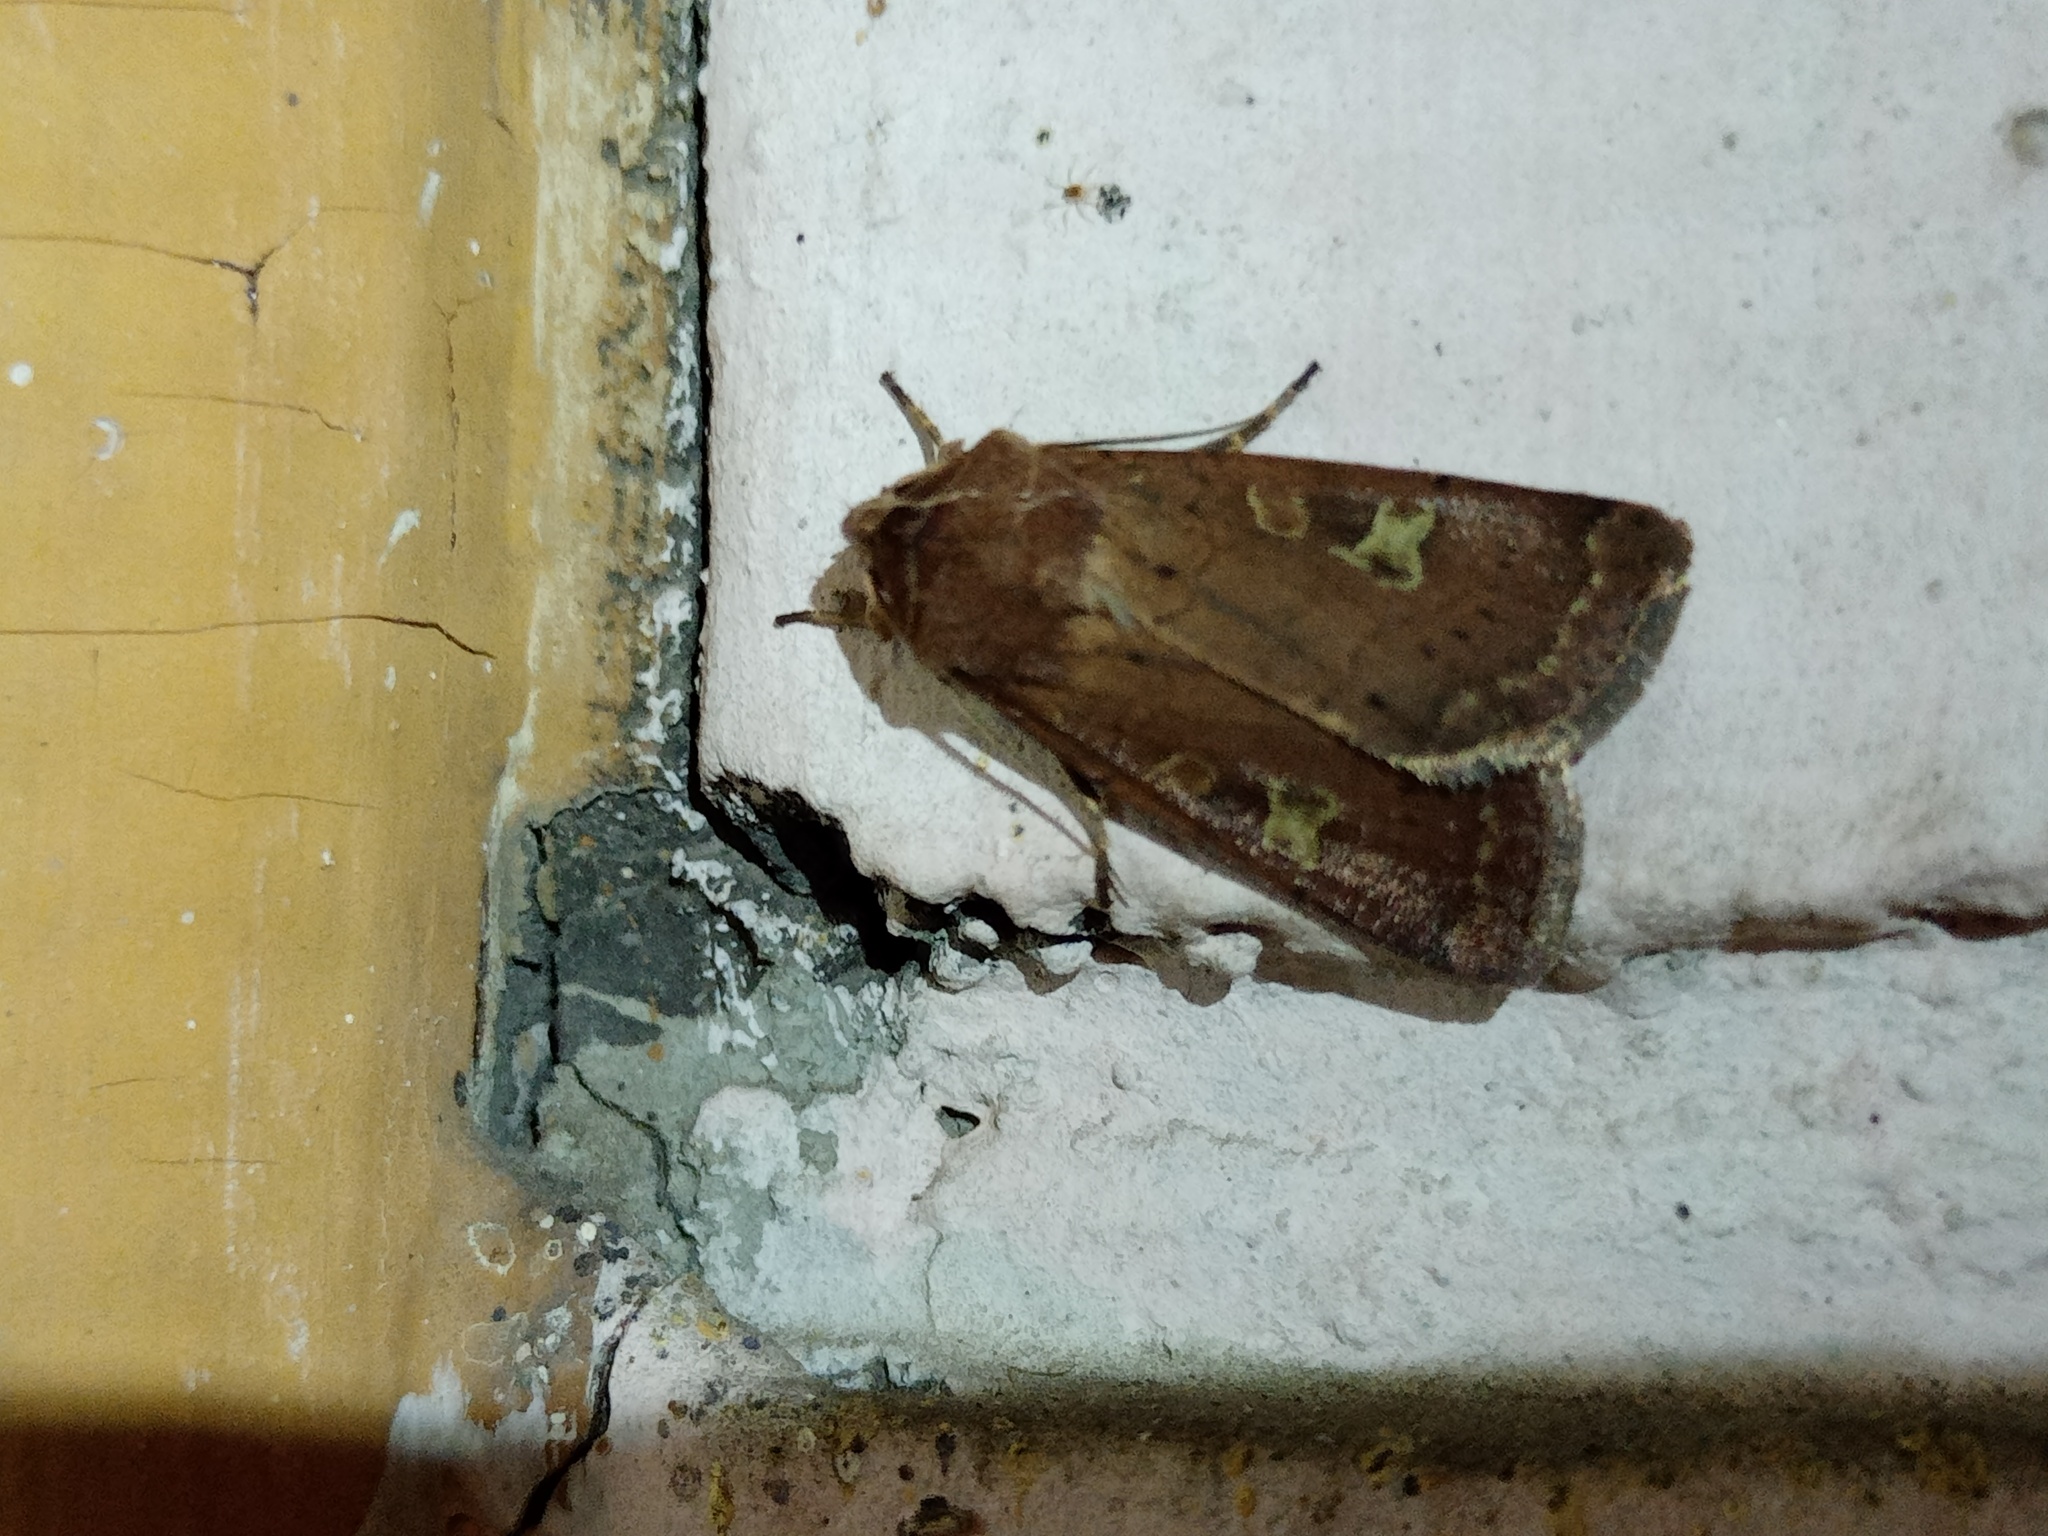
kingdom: Animalia
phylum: Arthropoda
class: Insecta
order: Lepidoptera
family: Noctuidae
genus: Xestia
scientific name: Xestia xanthographa
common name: Square-spot rustic
